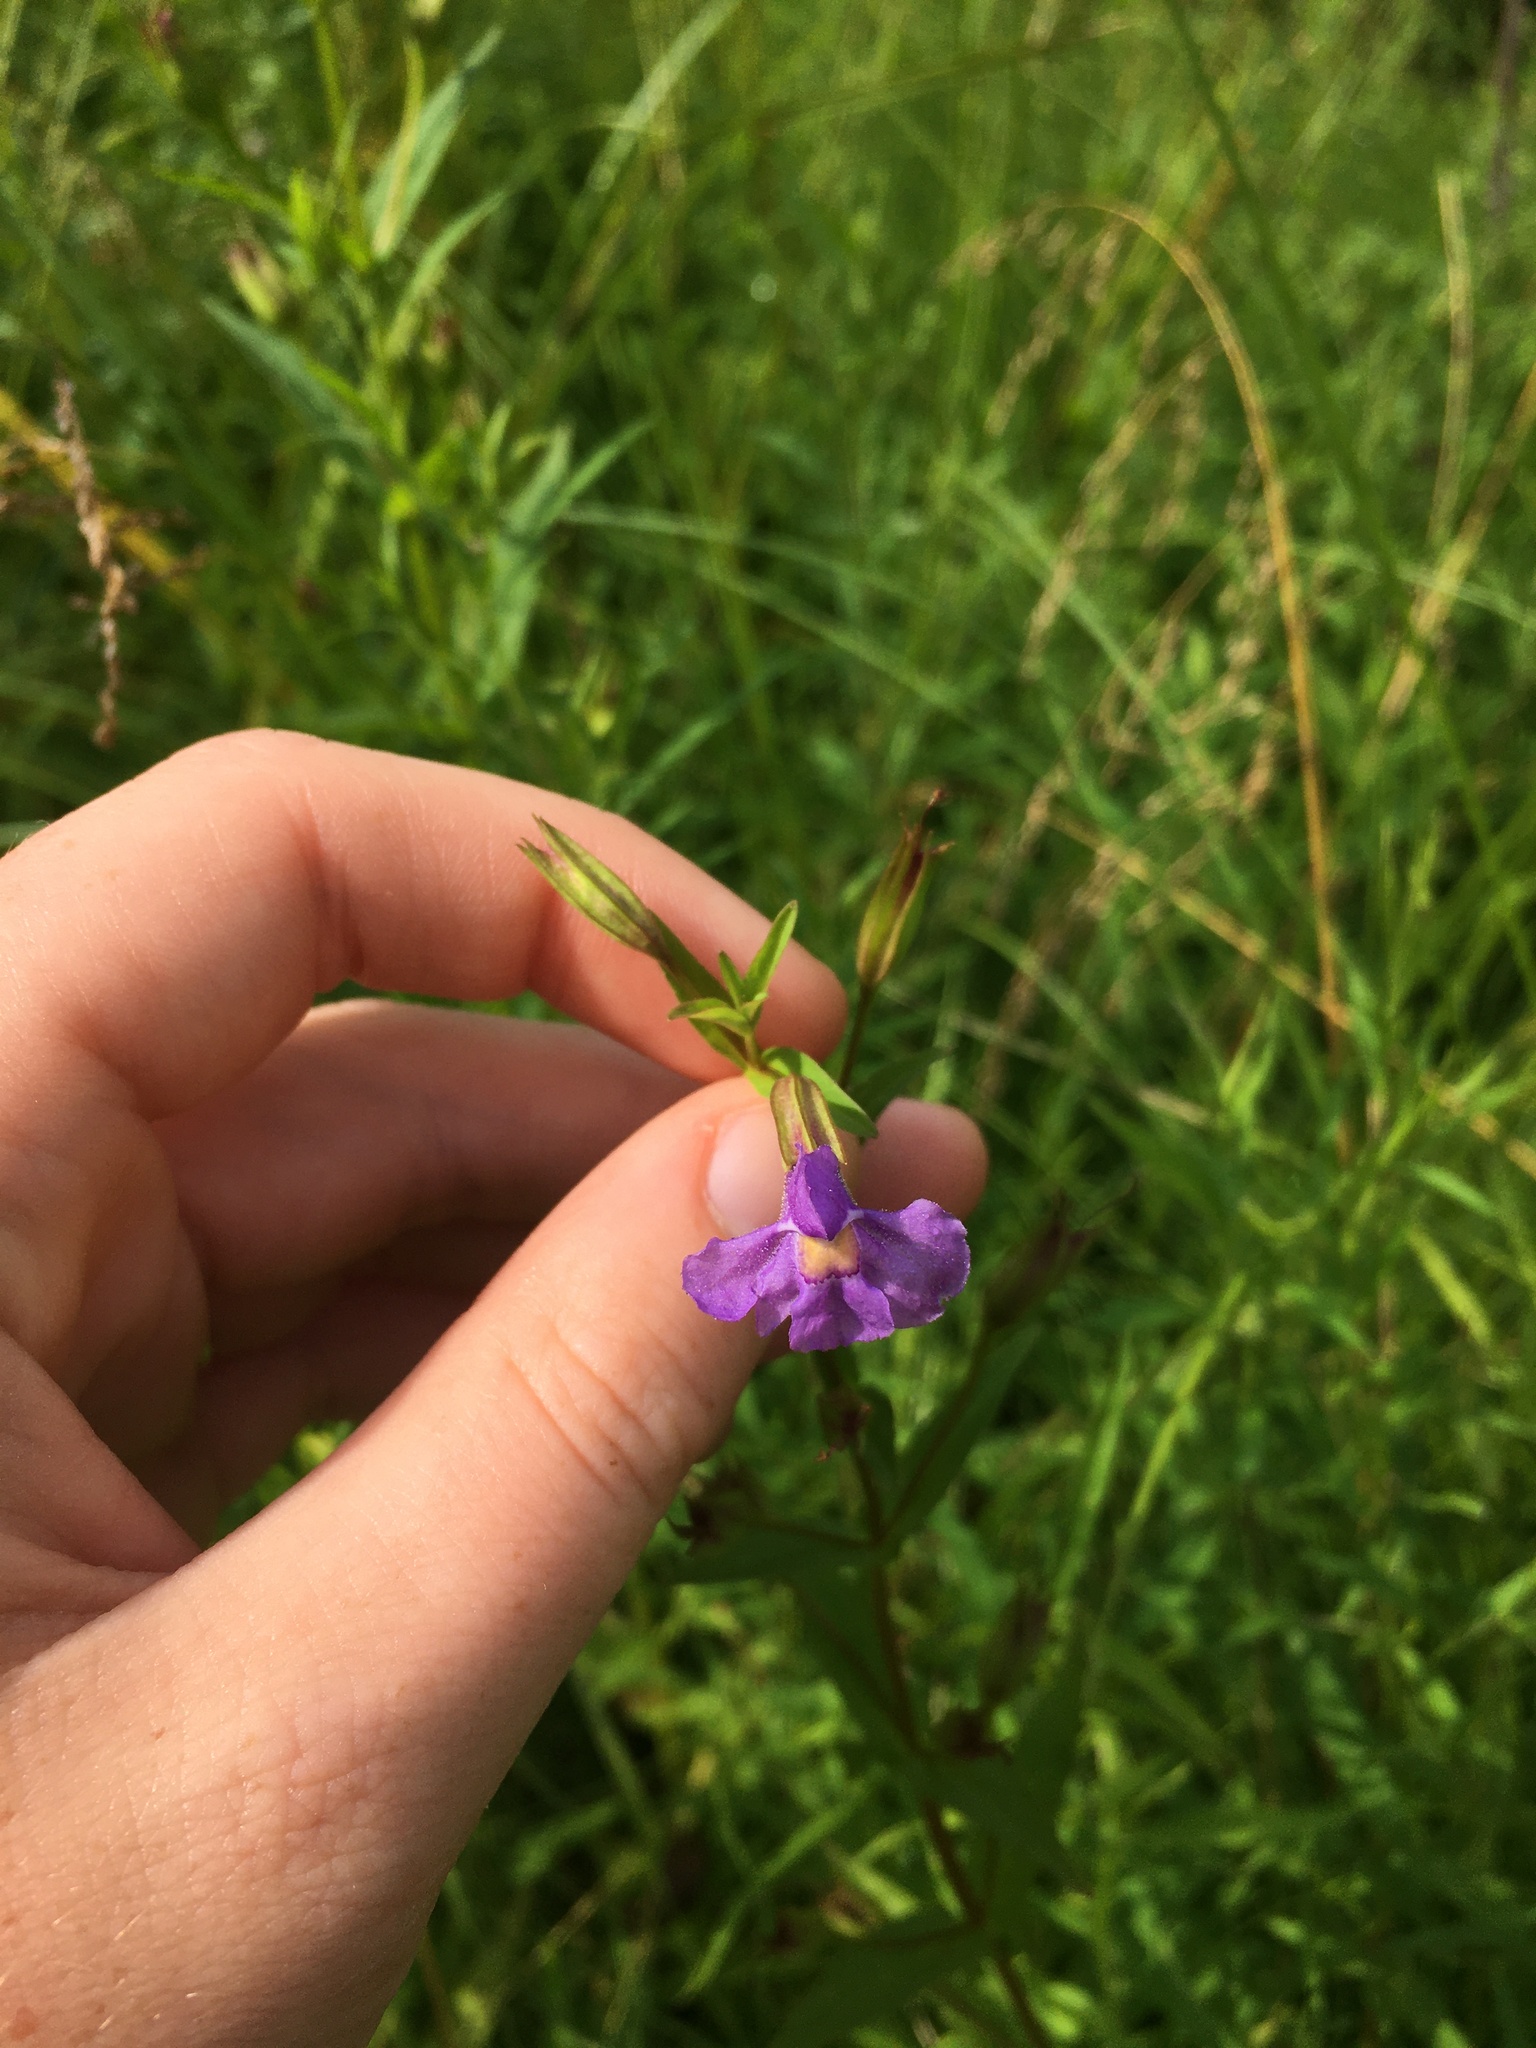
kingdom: Plantae
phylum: Tracheophyta
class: Magnoliopsida
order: Lamiales
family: Phrymaceae
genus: Mimulus
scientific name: Mimulus ringens
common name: Allegheny monkeyflower
